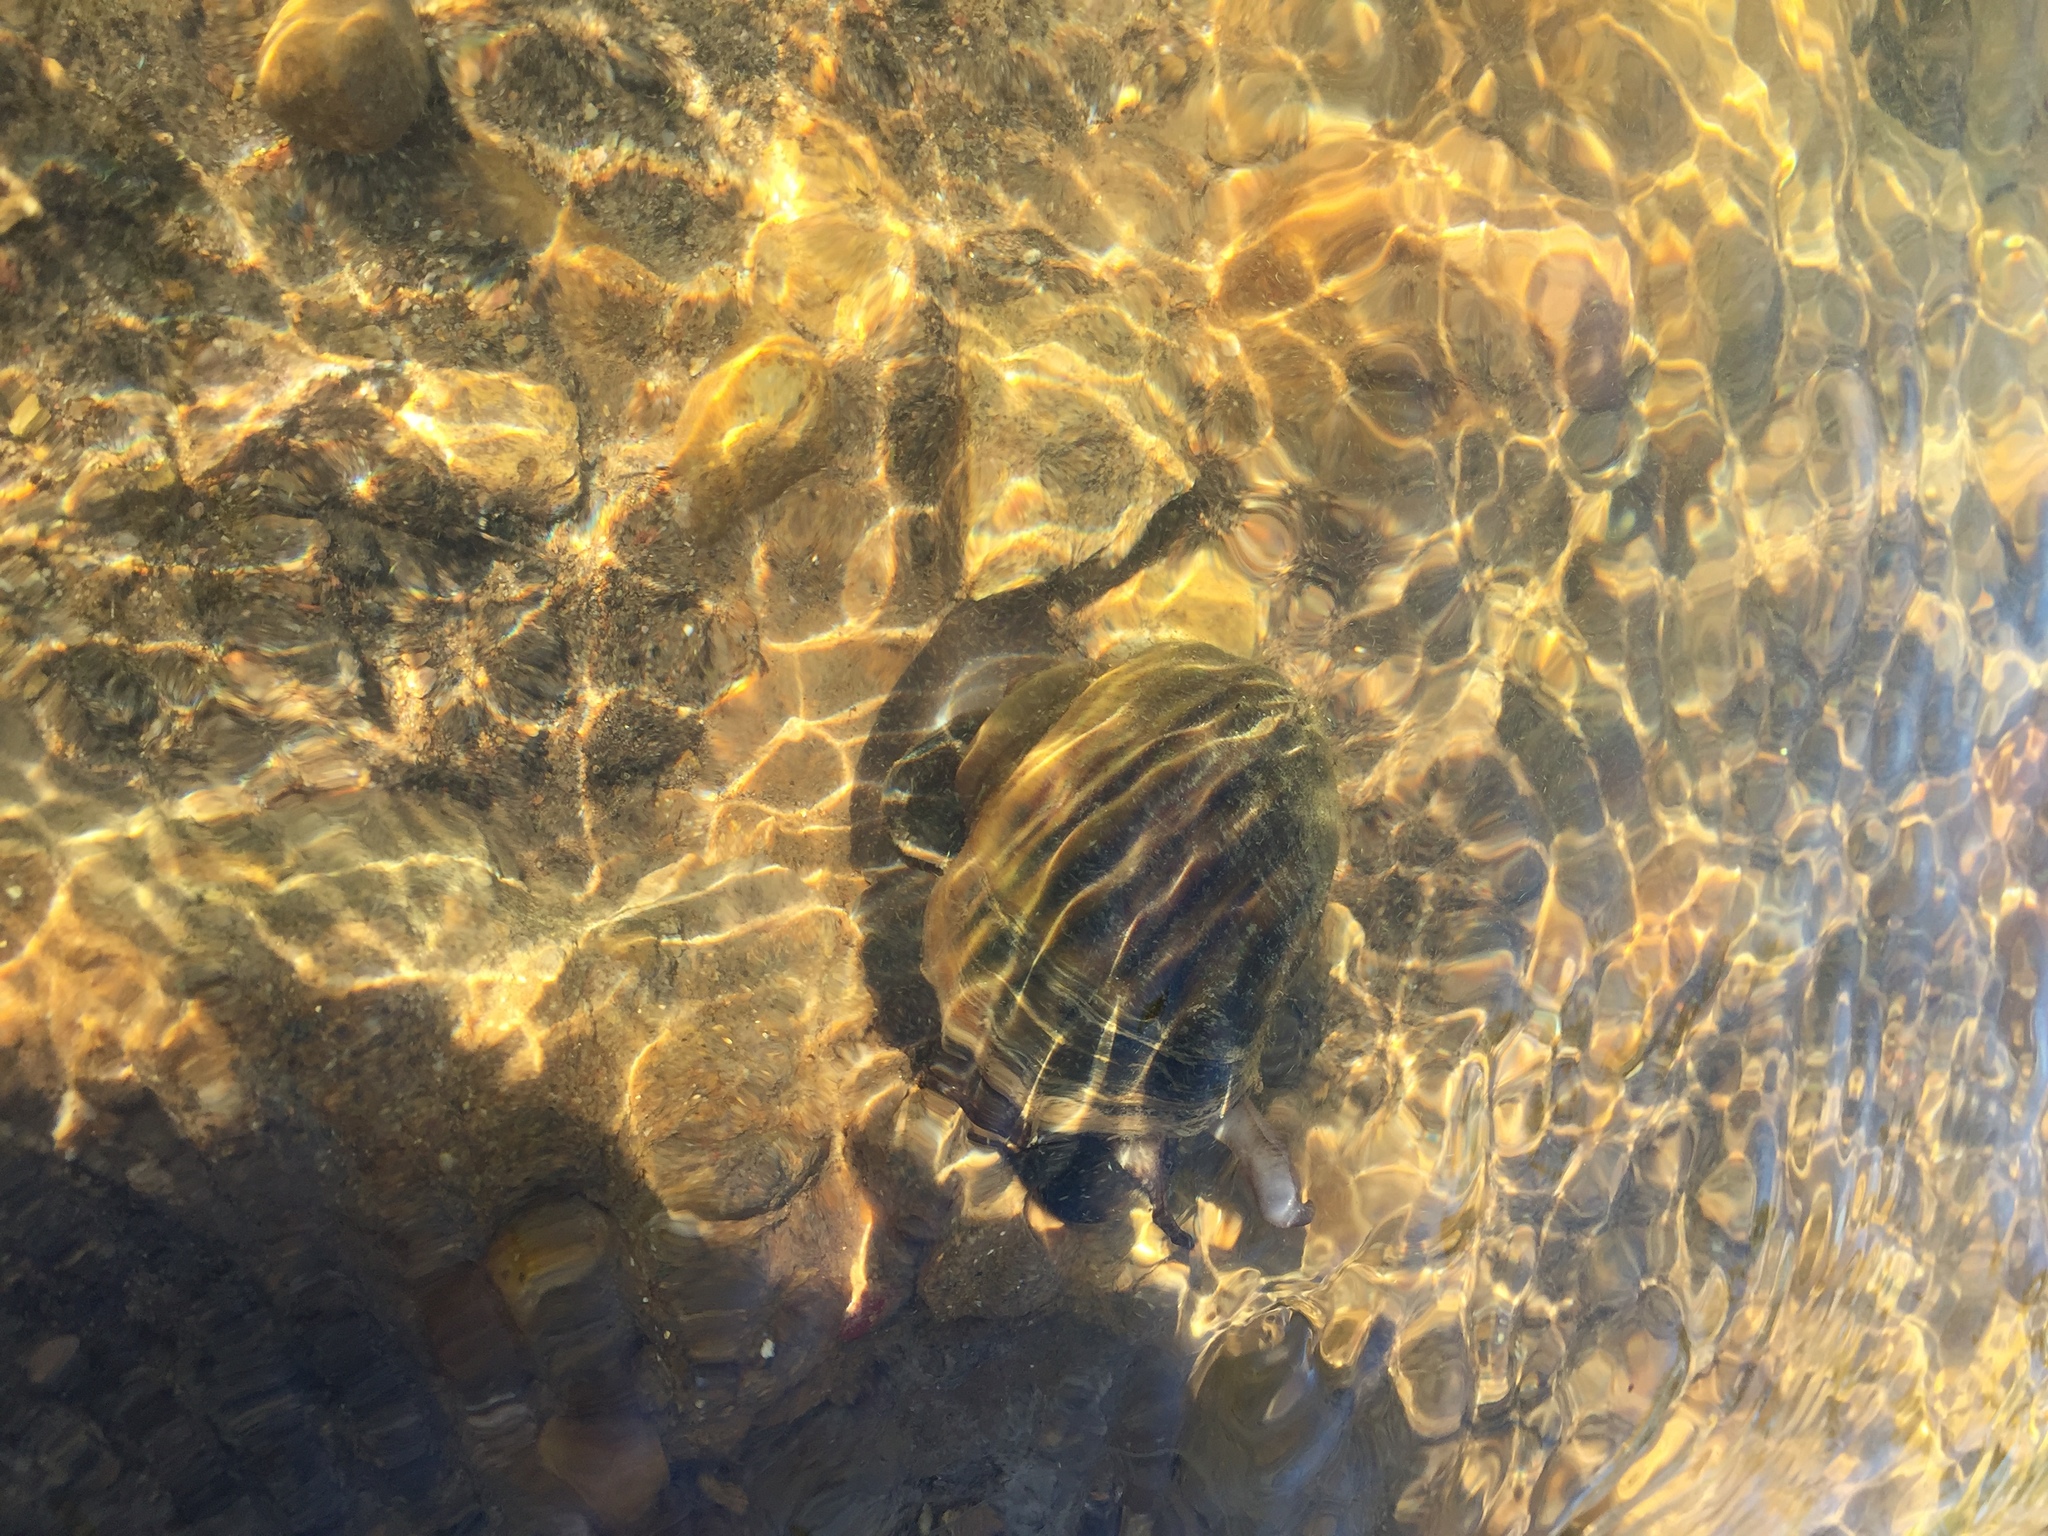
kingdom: Animalia
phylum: Mollusca
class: Gastropoda
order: Architaenioglossa
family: Ampullariidae
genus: Pomacea
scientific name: Pomacea canaliculata
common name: Channeled applesnail
